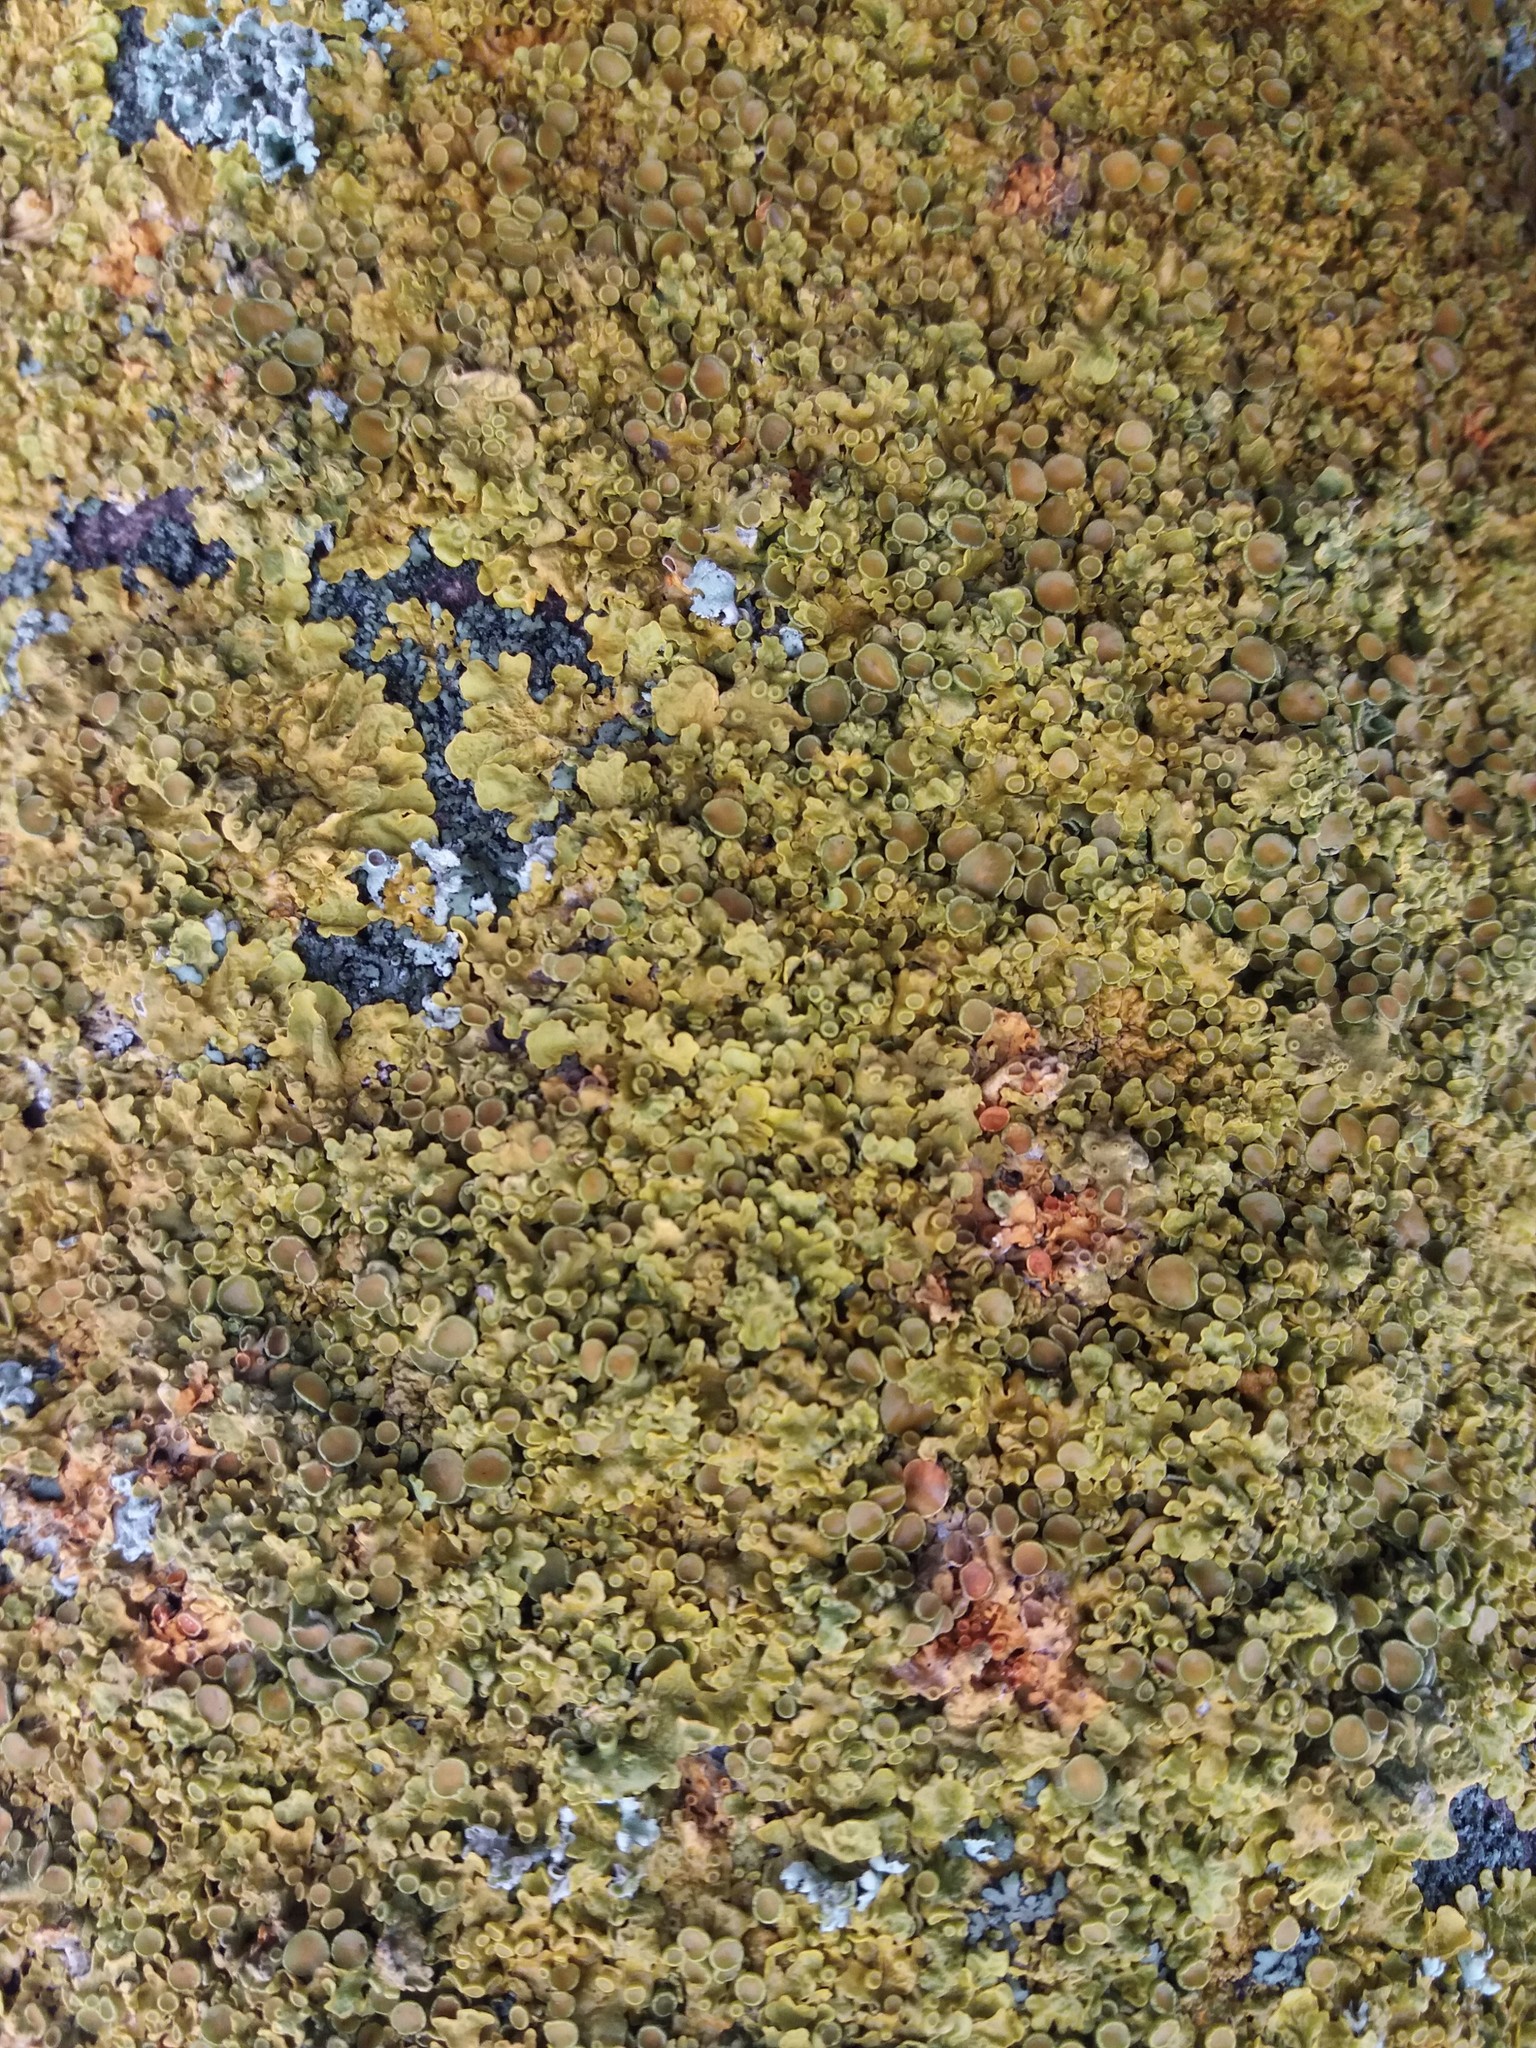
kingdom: Fungi
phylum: Ascomycota
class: Lecanoromycetes
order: Teloschistales
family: Teloschistaceae
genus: Xanthoria
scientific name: Xanthoria parietina
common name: Common orange lichen
